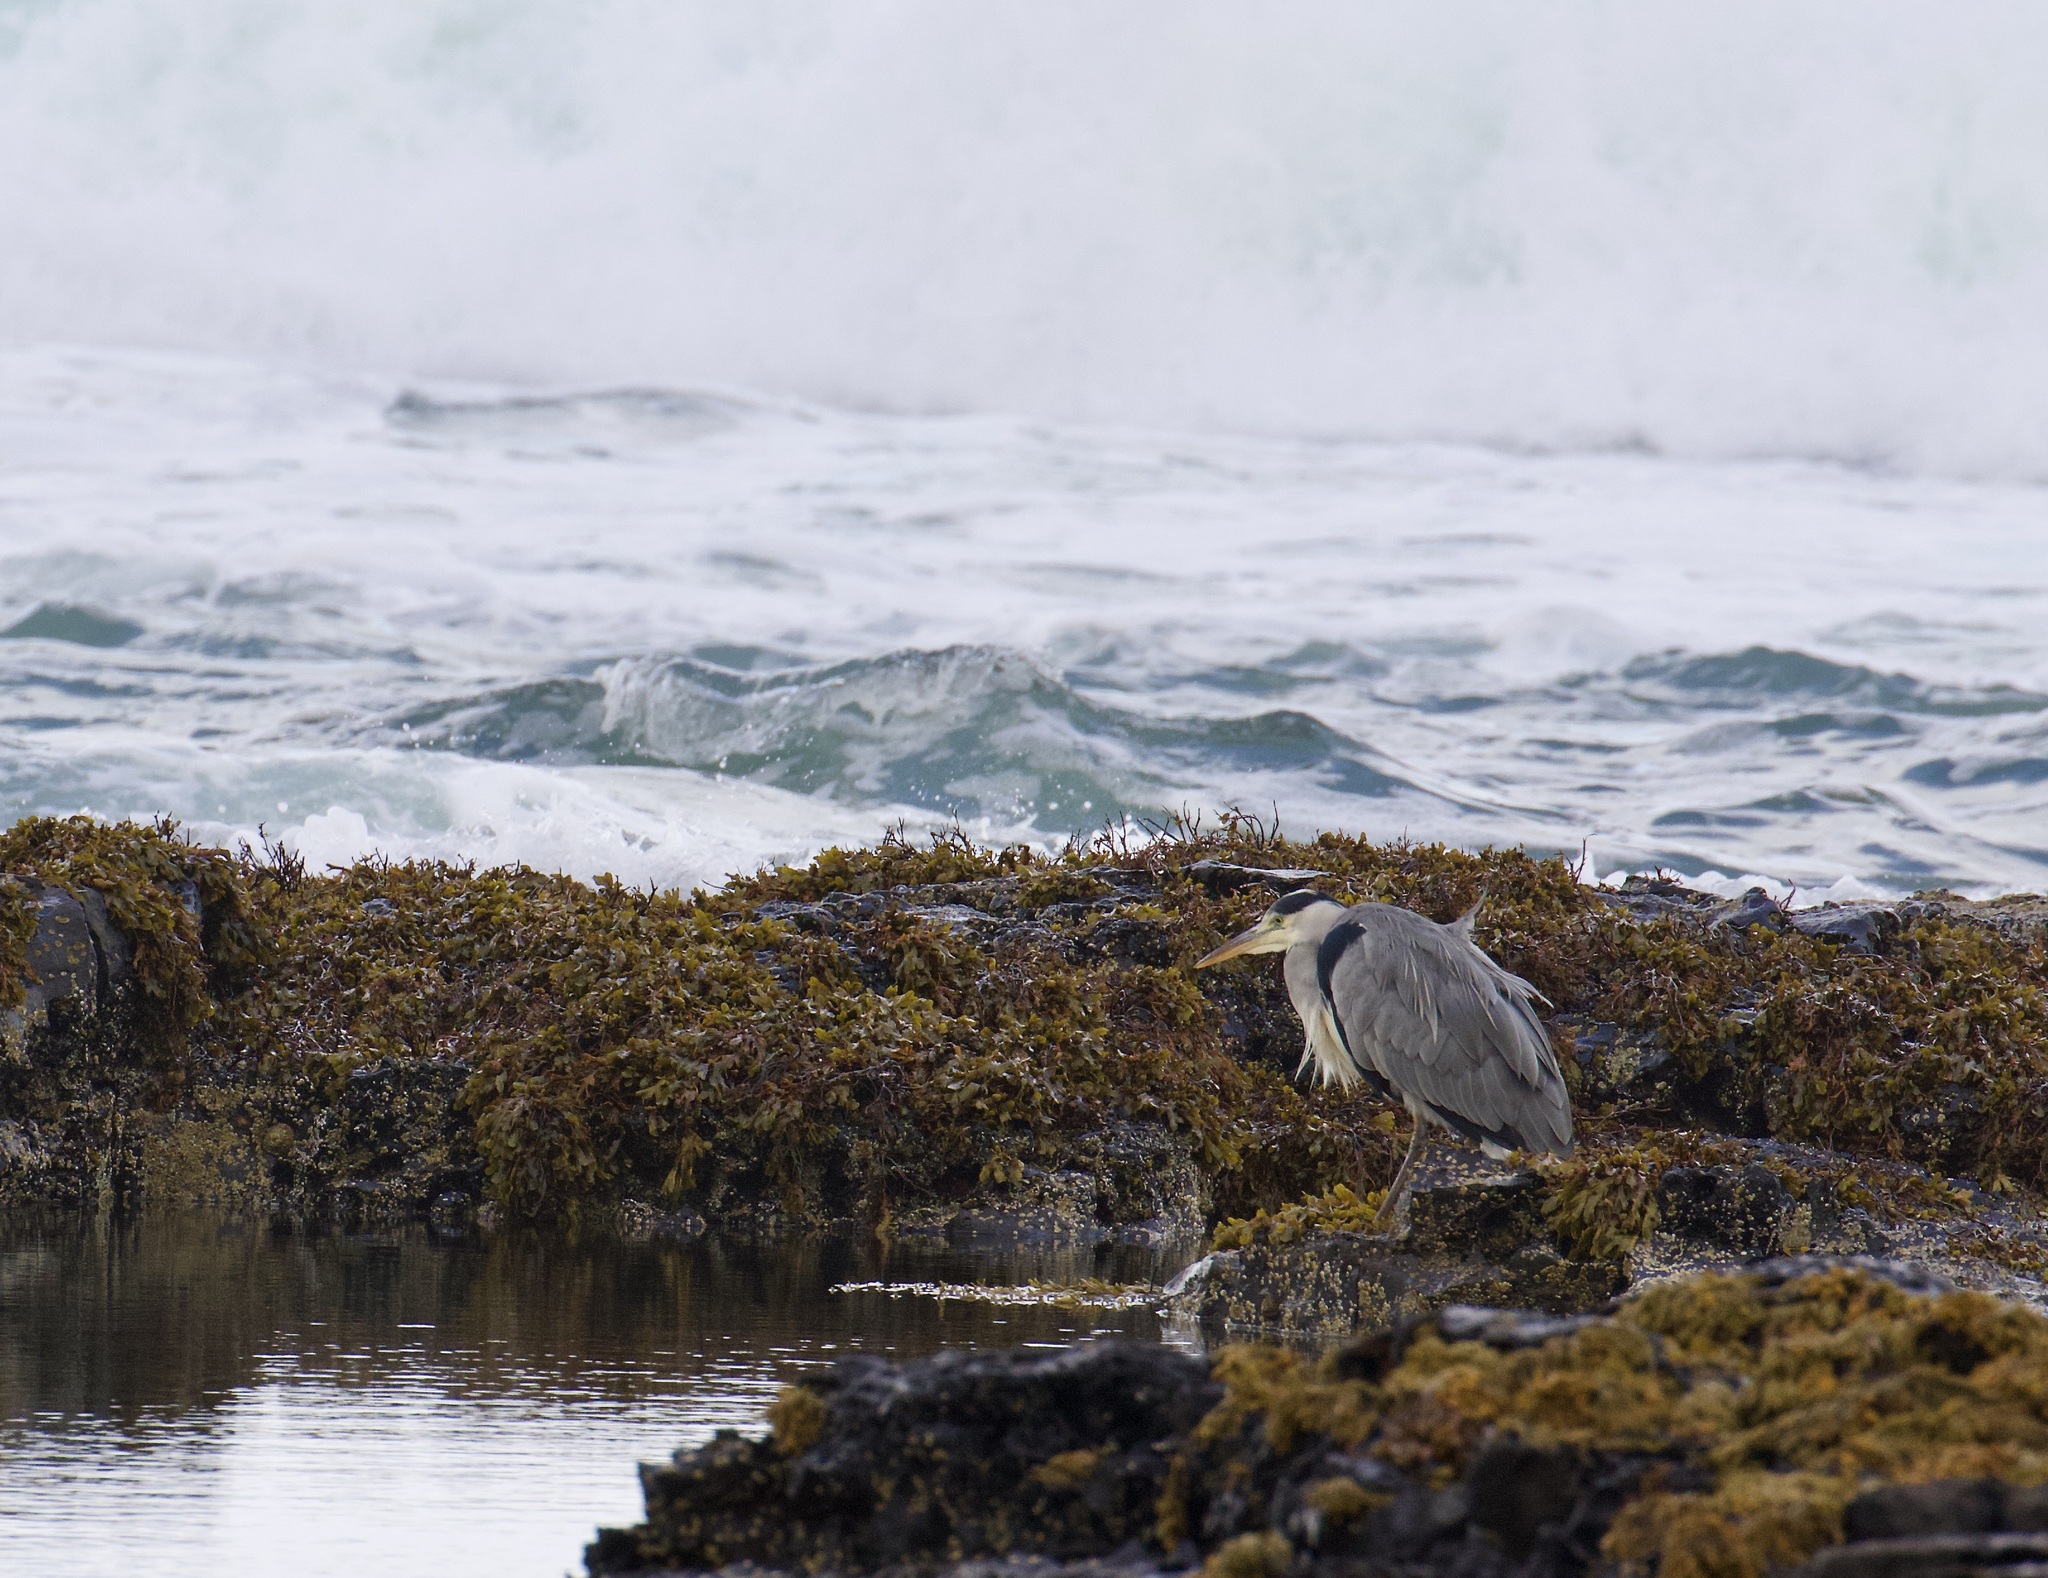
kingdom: Animalia
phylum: Chordata
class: Aves
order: Pelecaniformes
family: Ardeidae
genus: Ardea
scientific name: Ardea cinerea
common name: Grey heron
